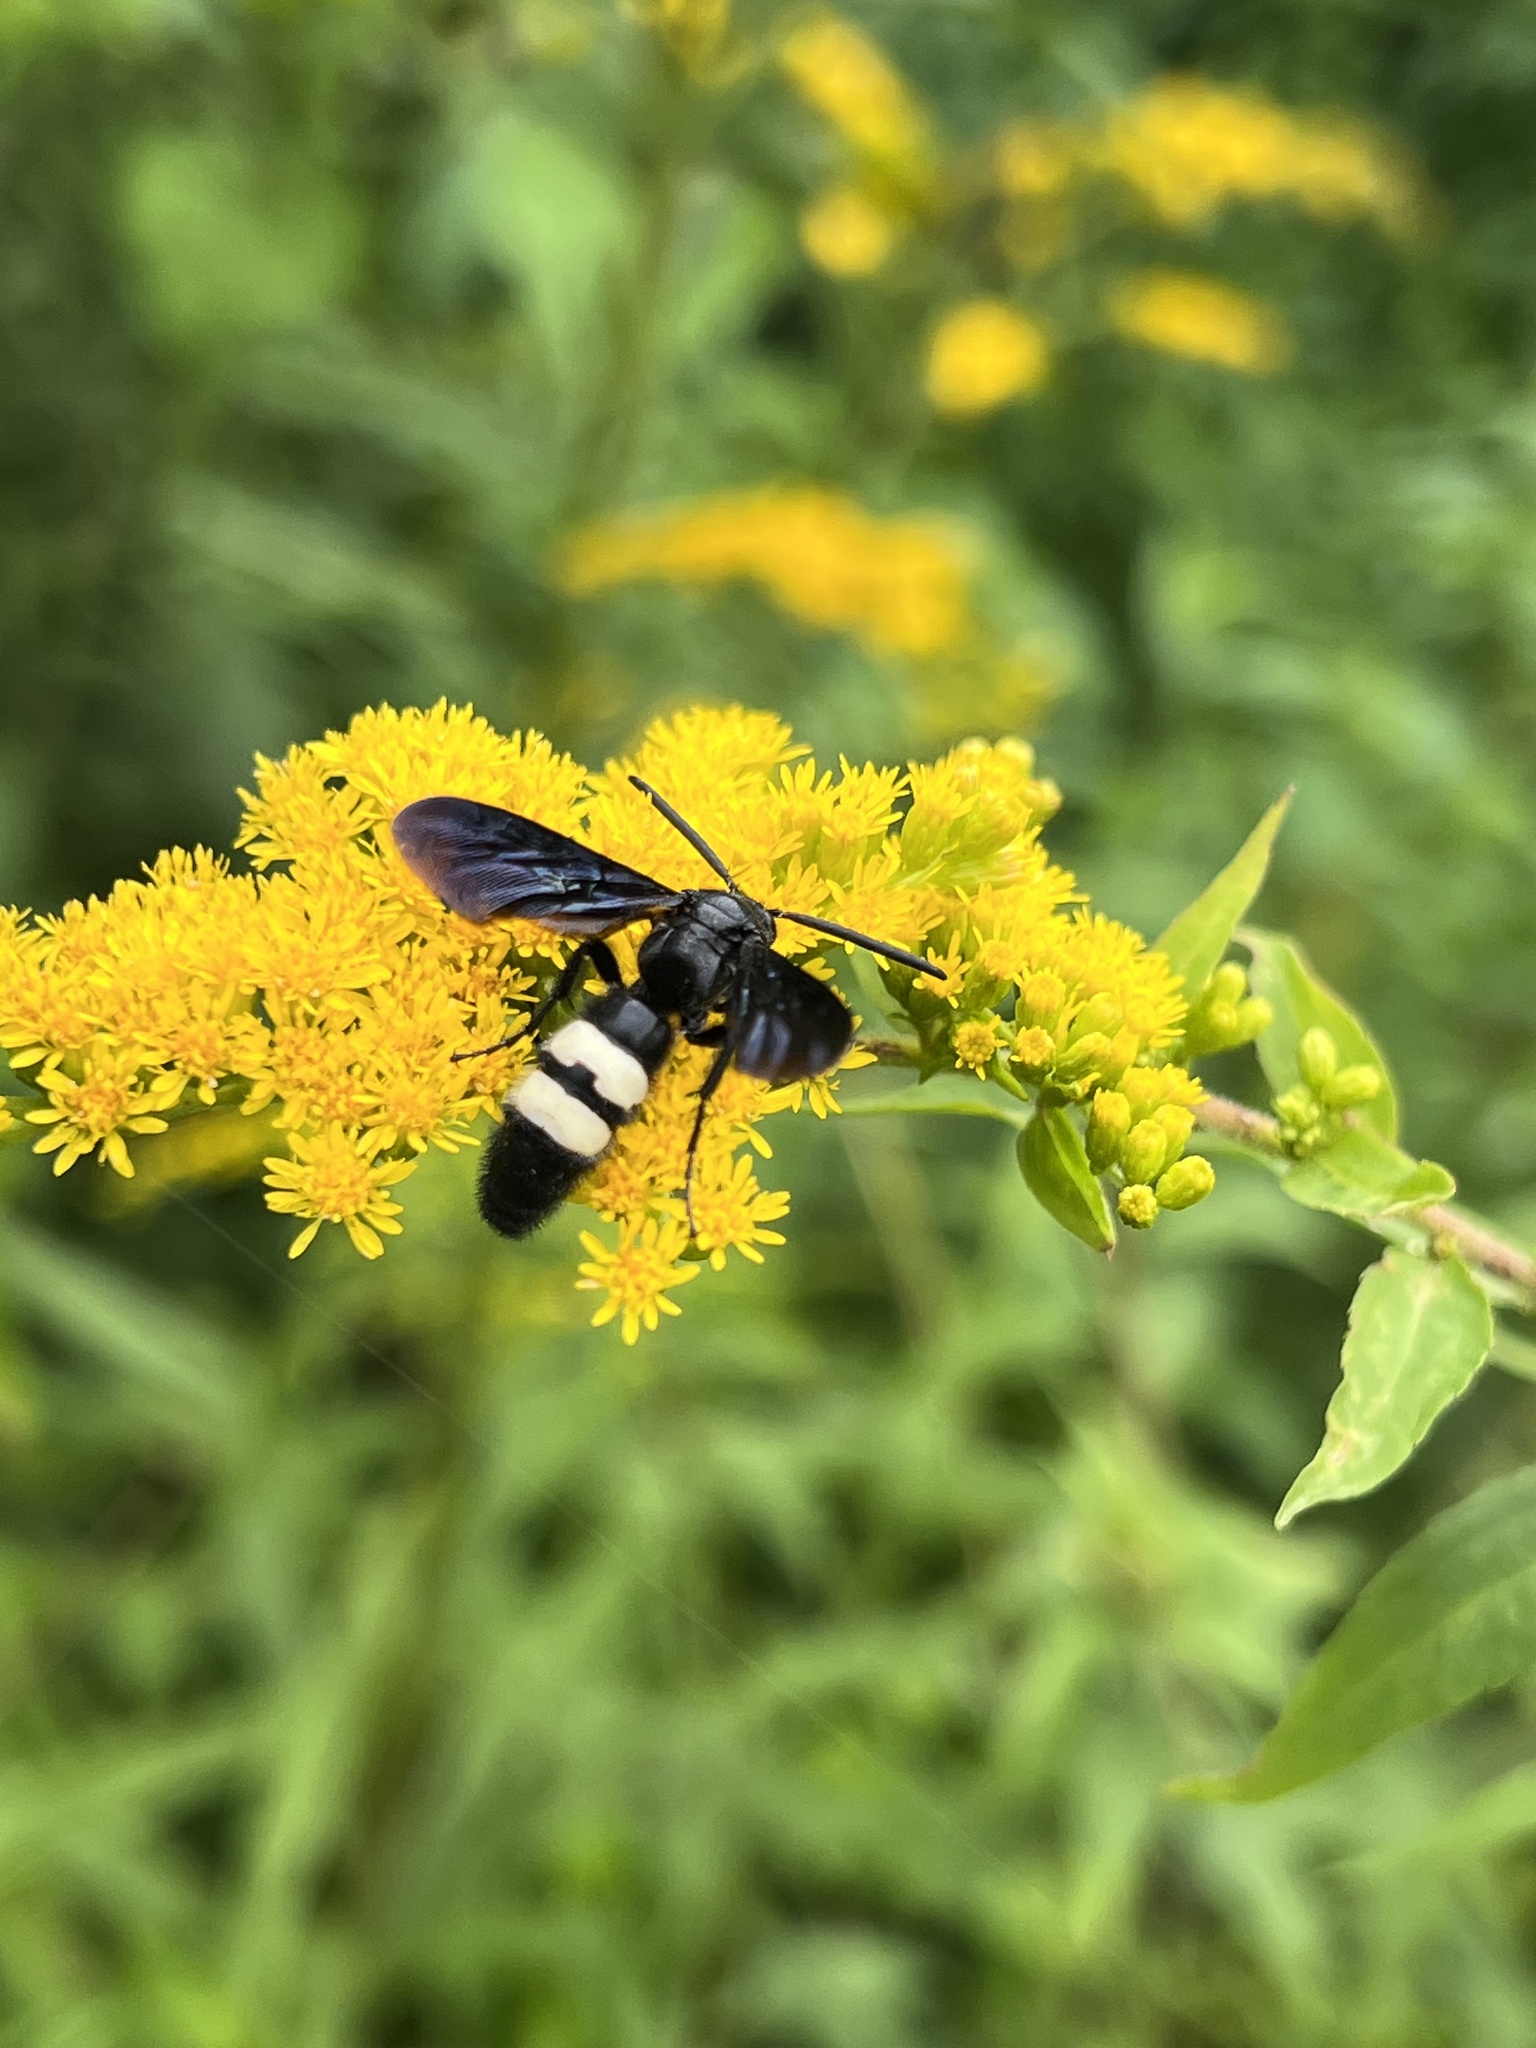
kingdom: Animalia
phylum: Arthropoda
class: Insecta
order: Hymenoptera
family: Scoliidae
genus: Scolia
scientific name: Scolia bicincta
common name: Double-banded scoliid wasp
